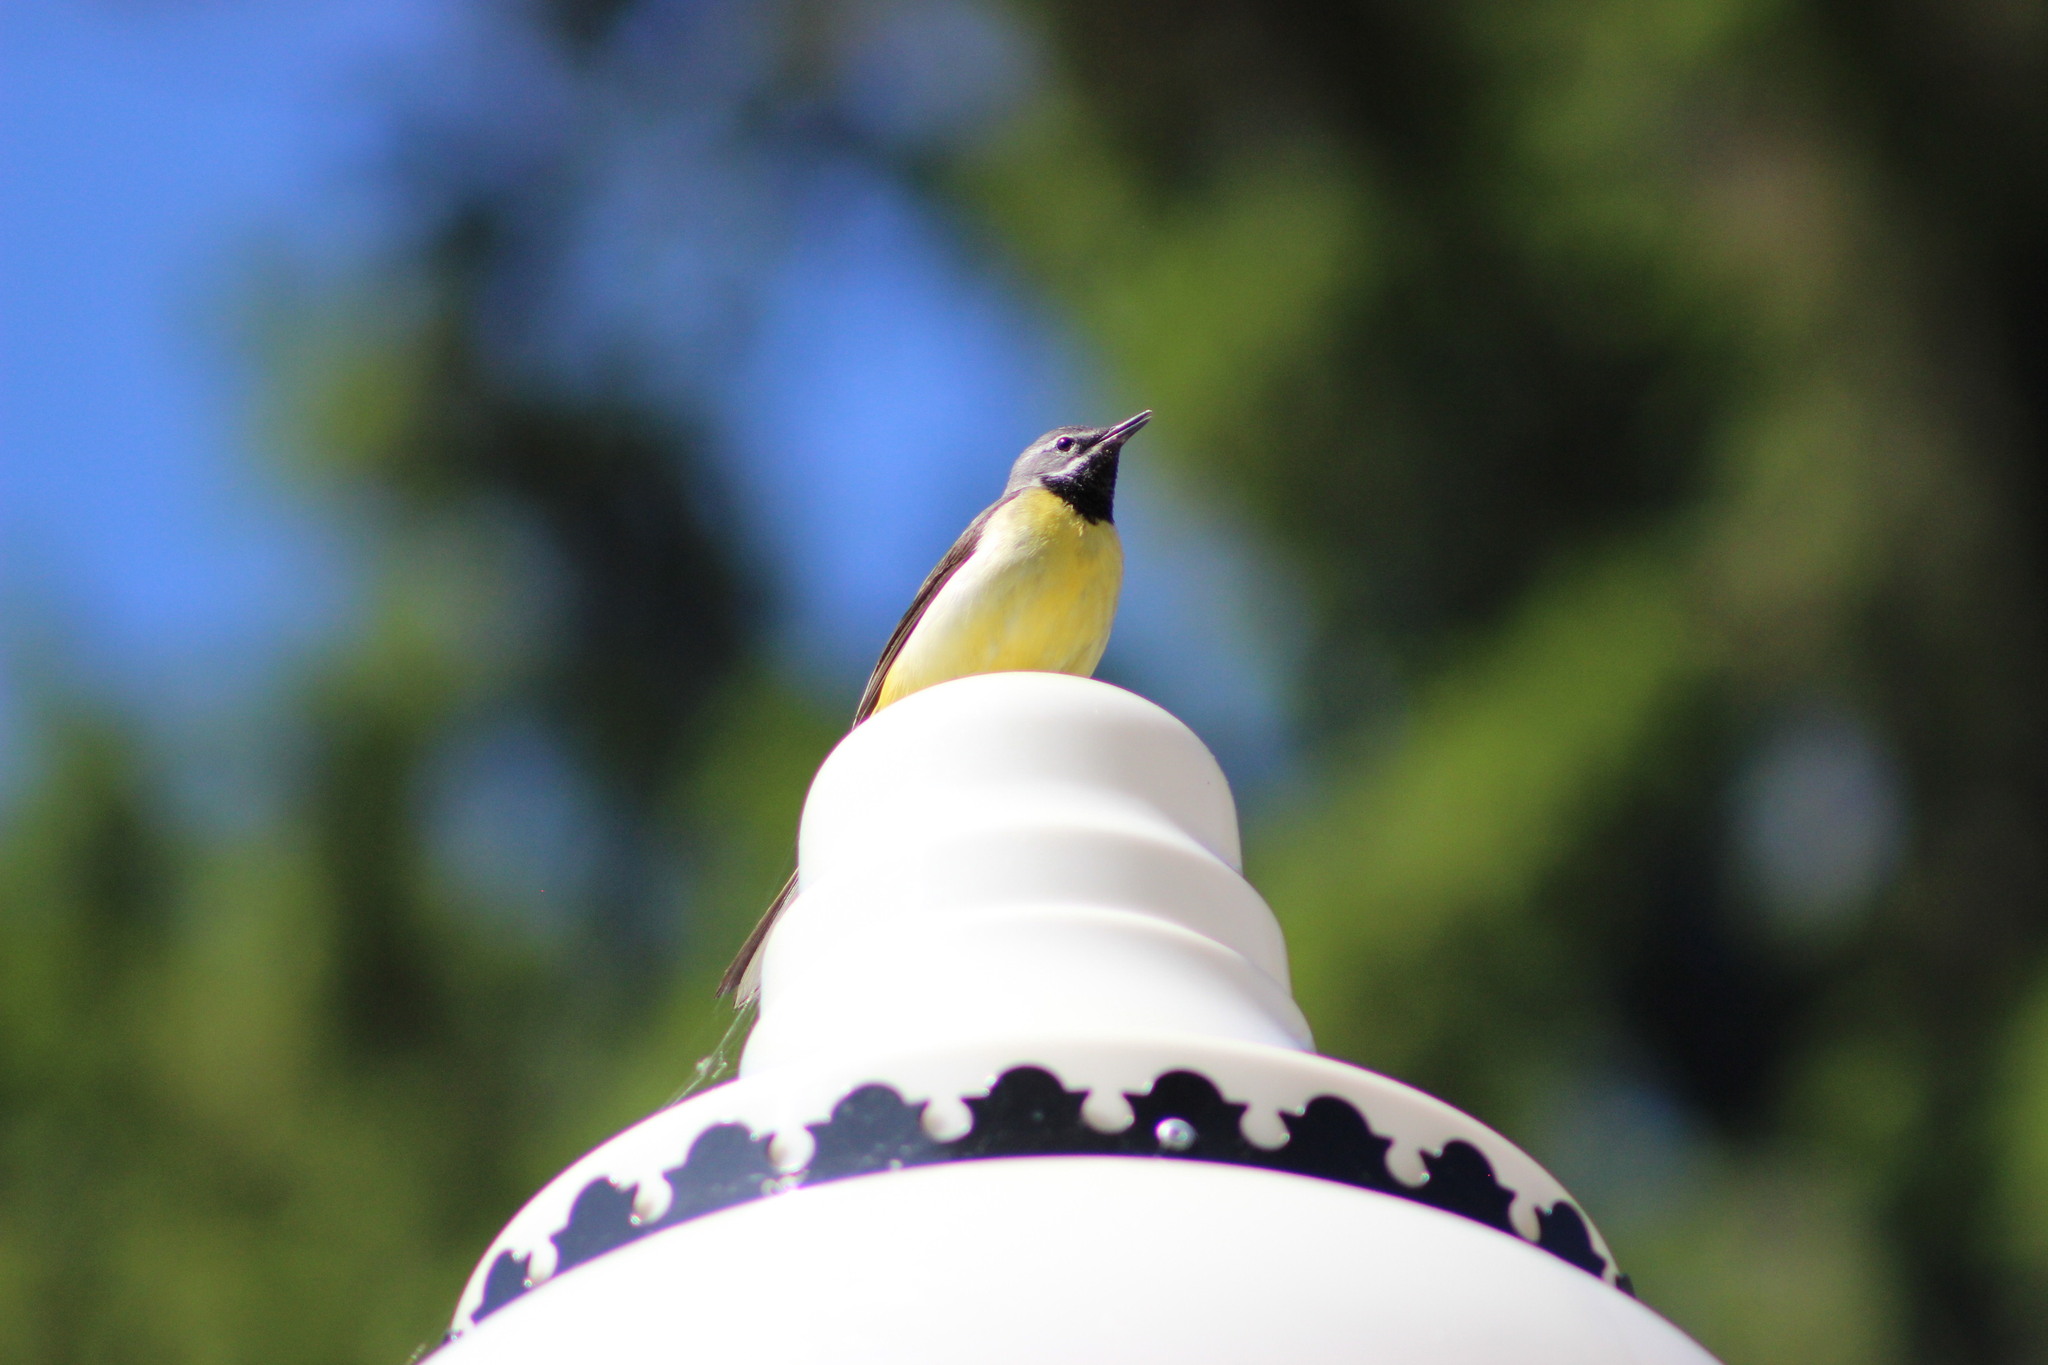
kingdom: Animalia
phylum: Chordata
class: Aves
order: Passeriformes
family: Motacillidae
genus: Motacilla
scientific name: Motacilla cinerea
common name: Grey wagtail
